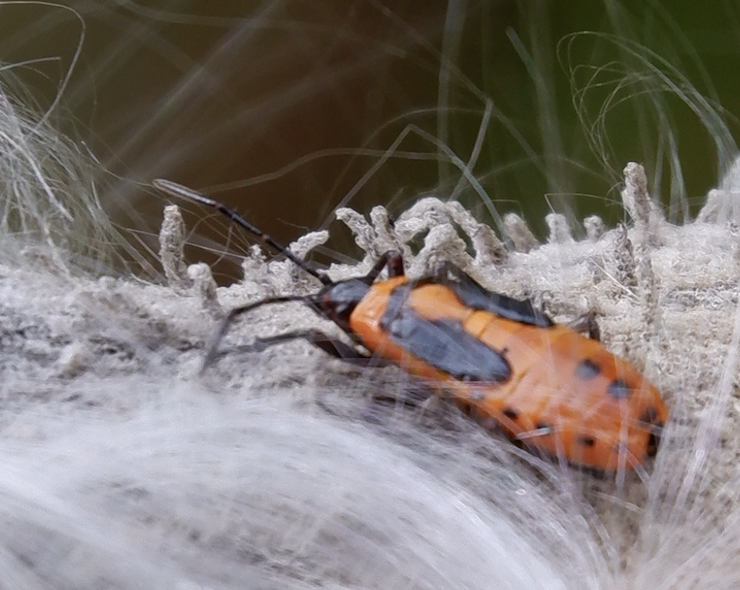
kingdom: Animalia
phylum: Arthropoda
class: Insecta
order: Hemiptera
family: Lygaeidae
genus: Oncopeltus
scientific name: Oncopeltus fasciatus
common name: Large milkweed bug
